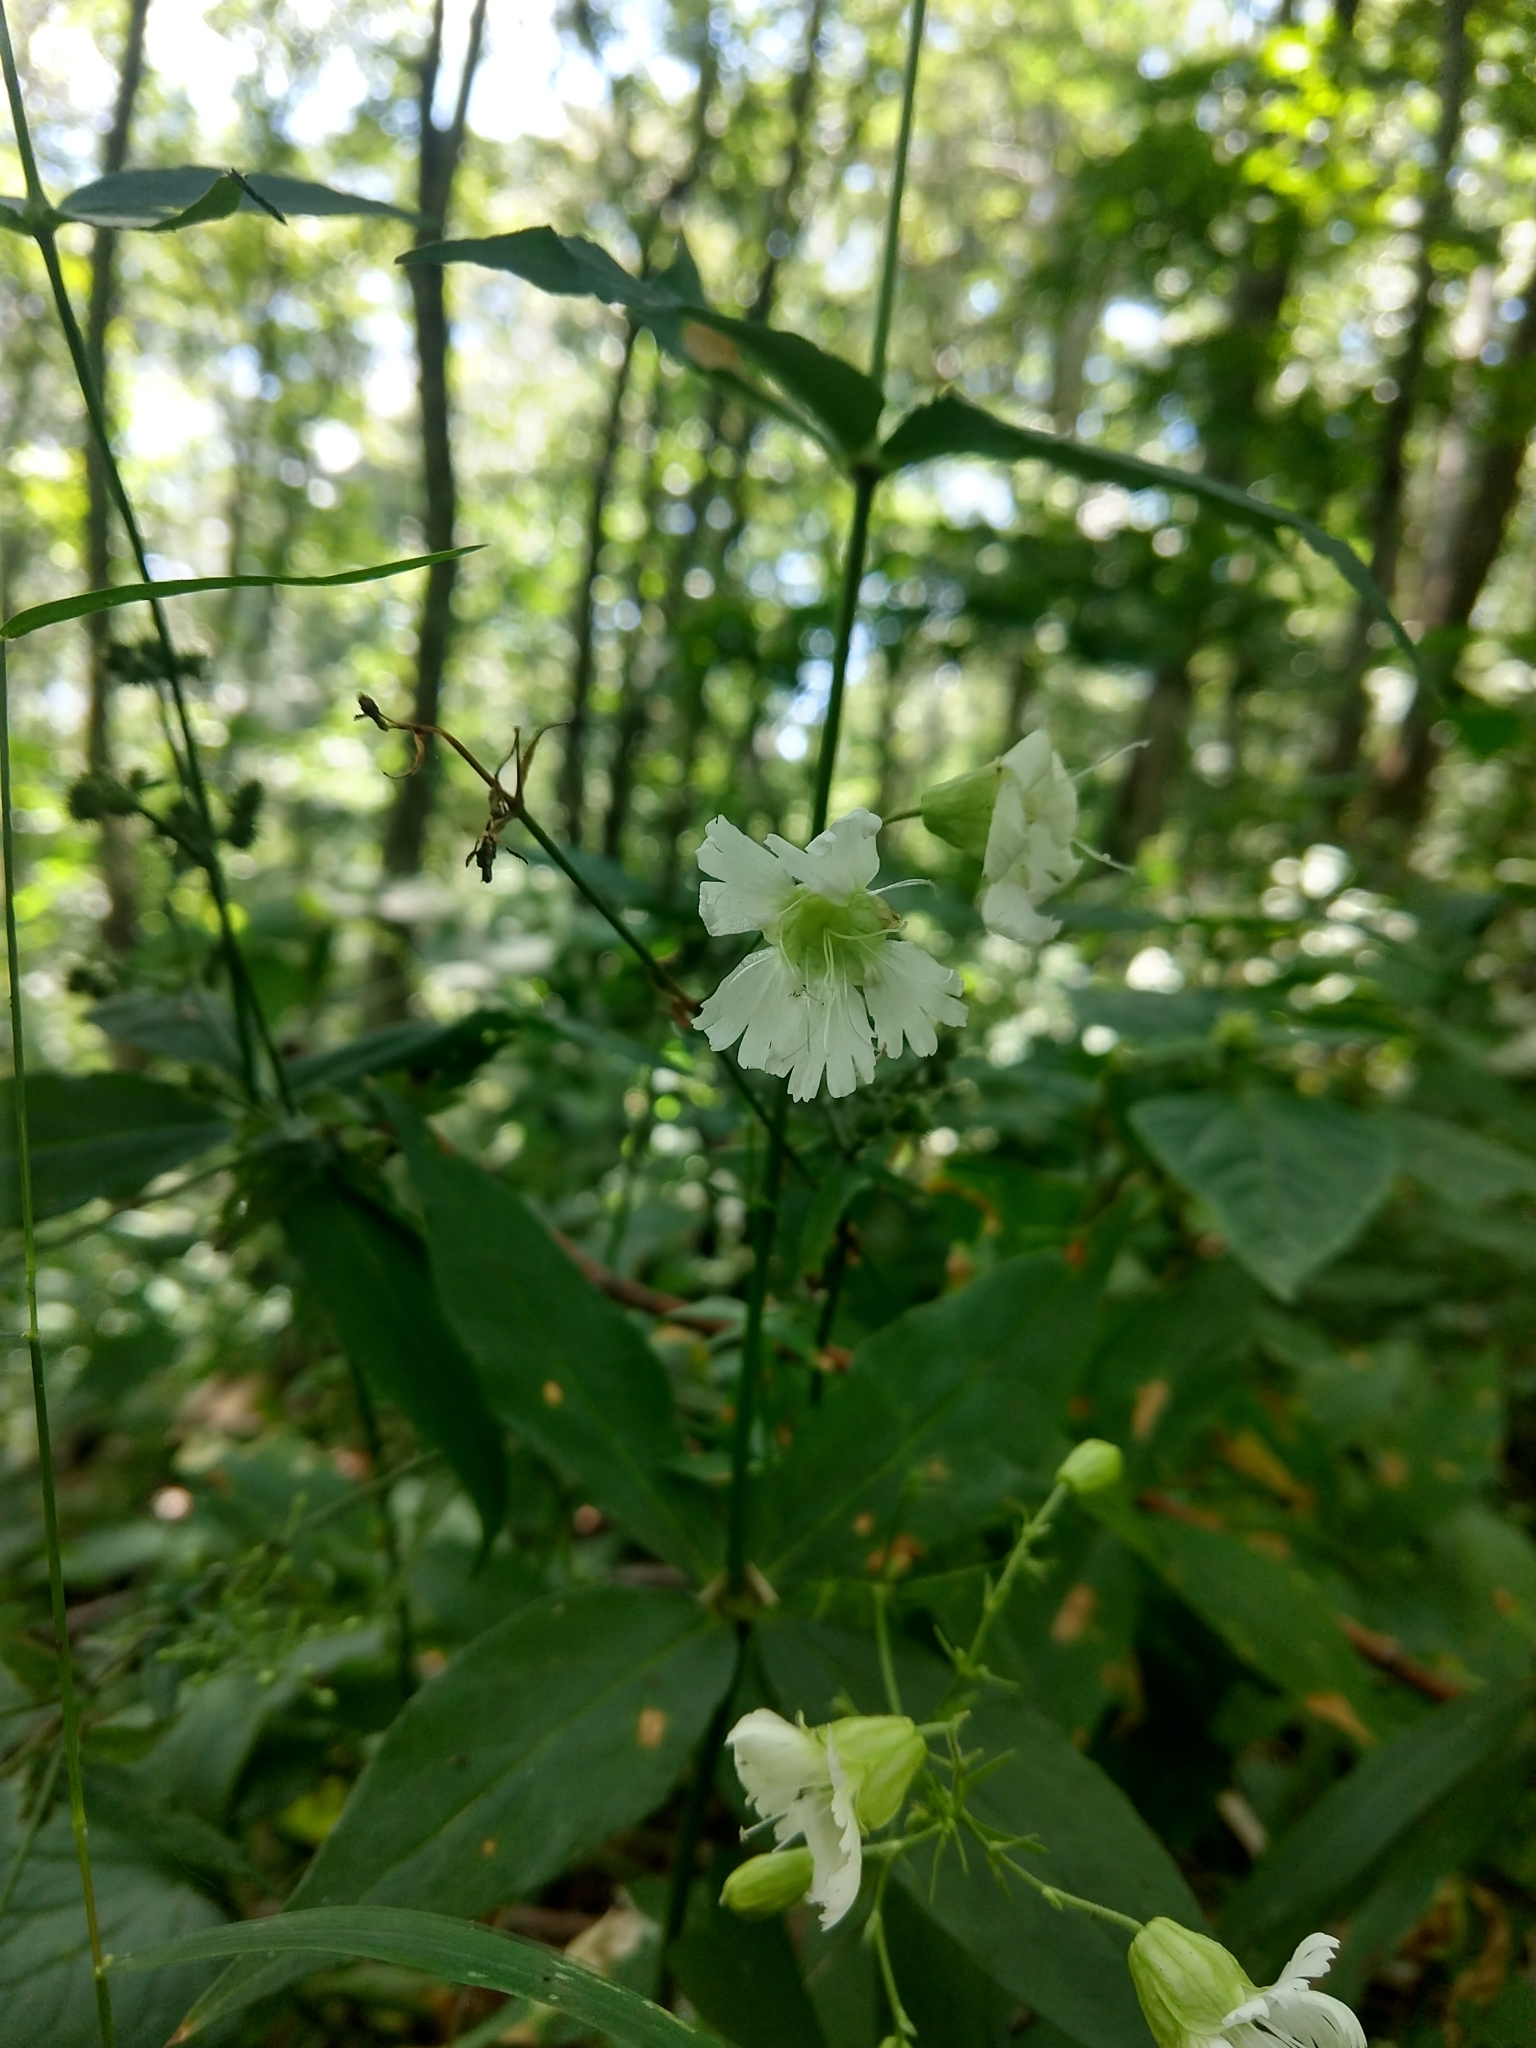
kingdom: Plantae
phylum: Tracheophyta
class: Magnoliopsida
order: Caryophyllales
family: Caryophyllaceae
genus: Silene
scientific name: Silene stellata
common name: Starry campion
